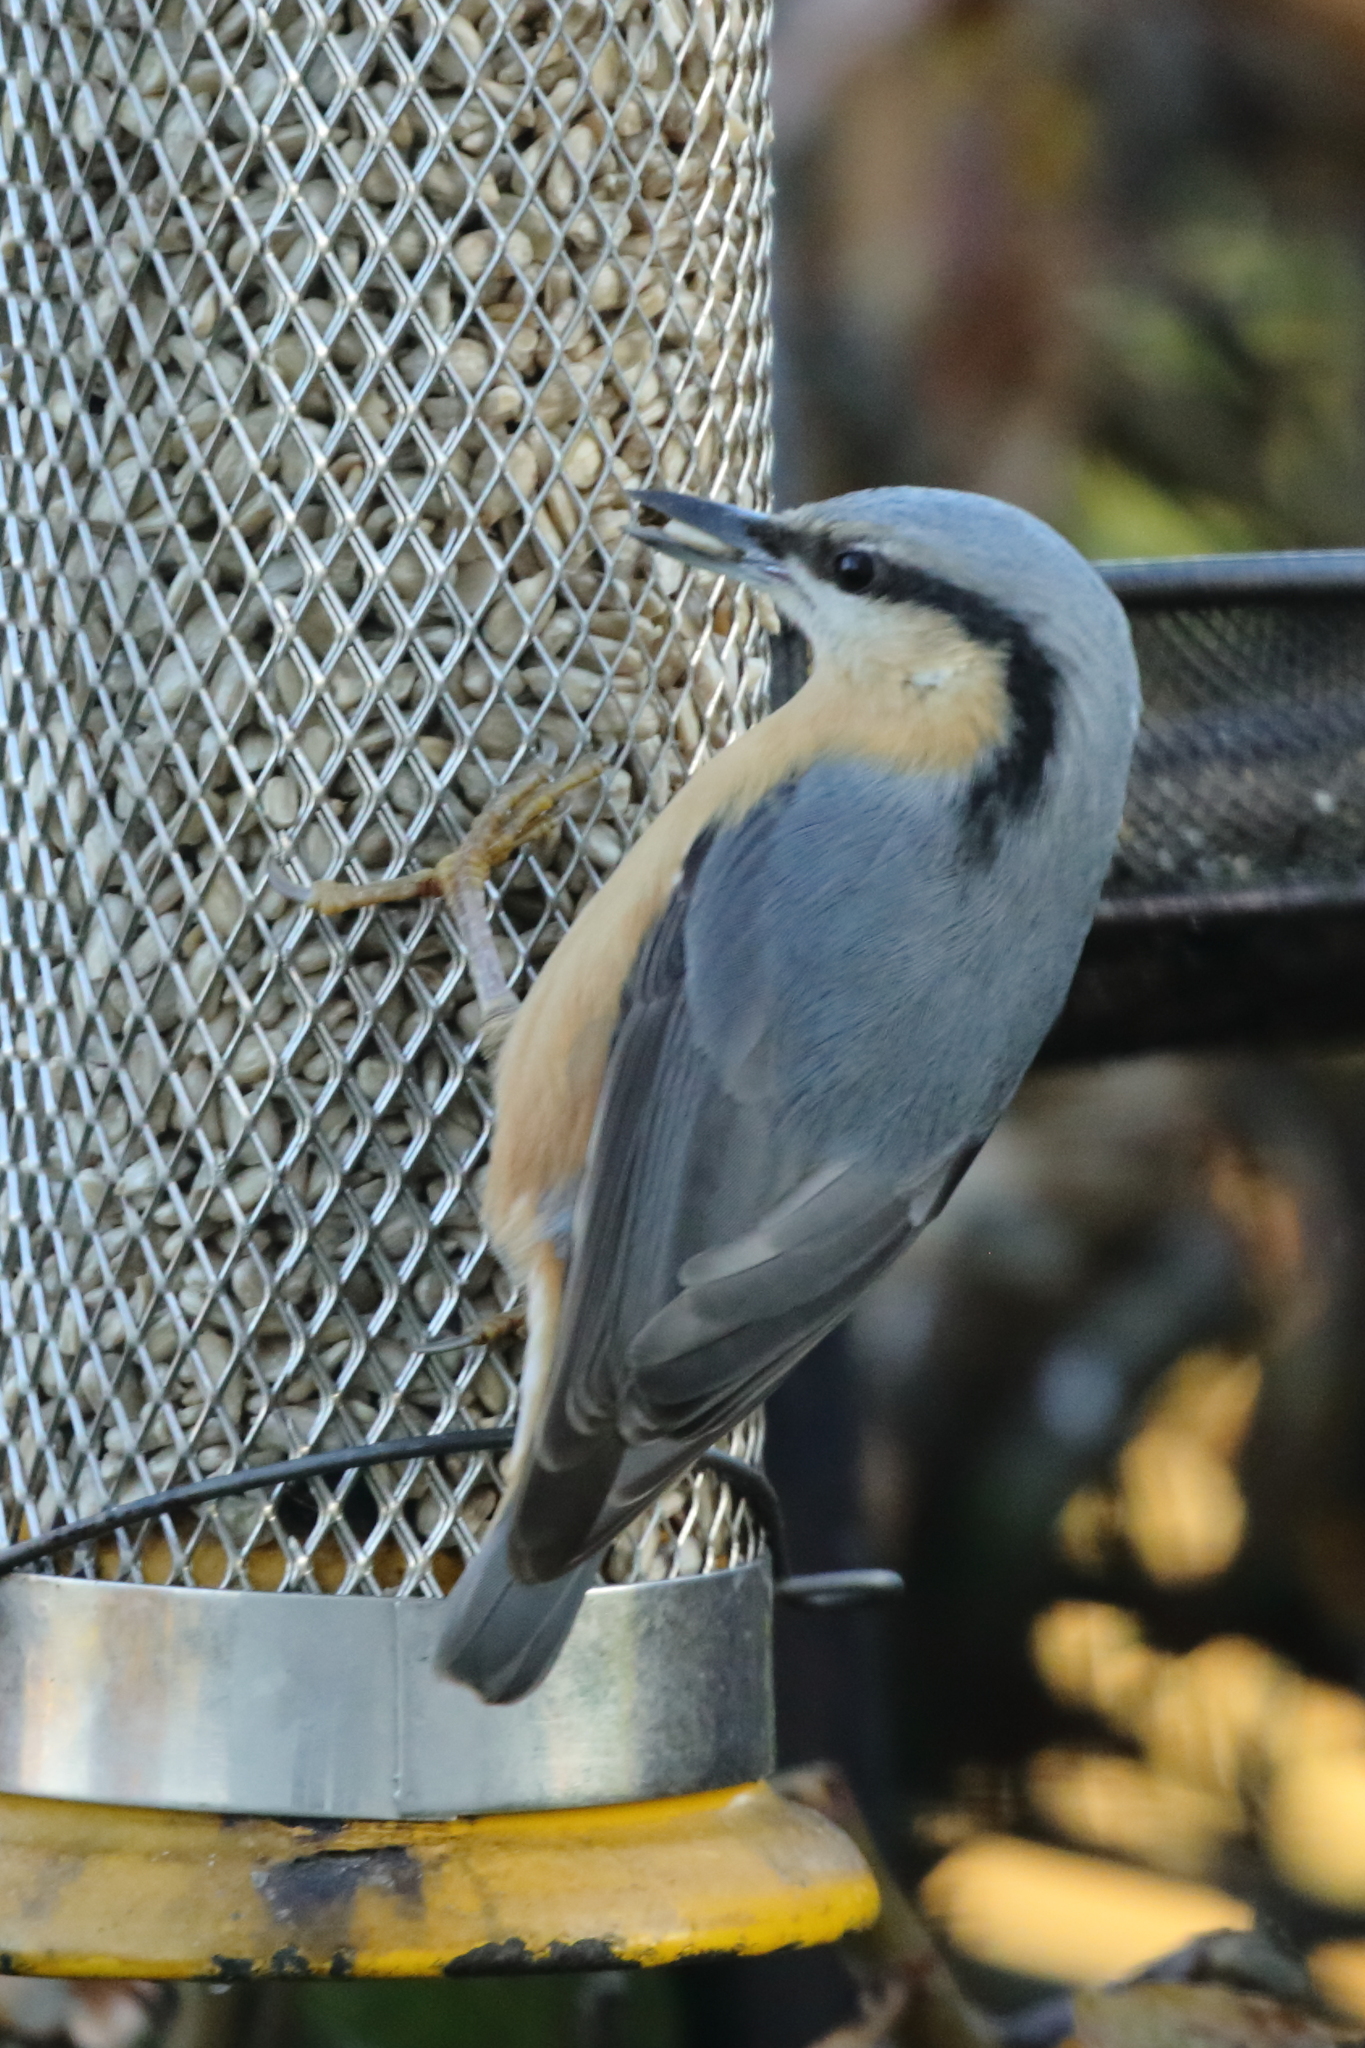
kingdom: Animalia
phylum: Chordata
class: Aves
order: Passeriformes
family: Sittidae
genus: Sitta
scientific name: Sitta europaea
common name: Eurasian nuthatch
